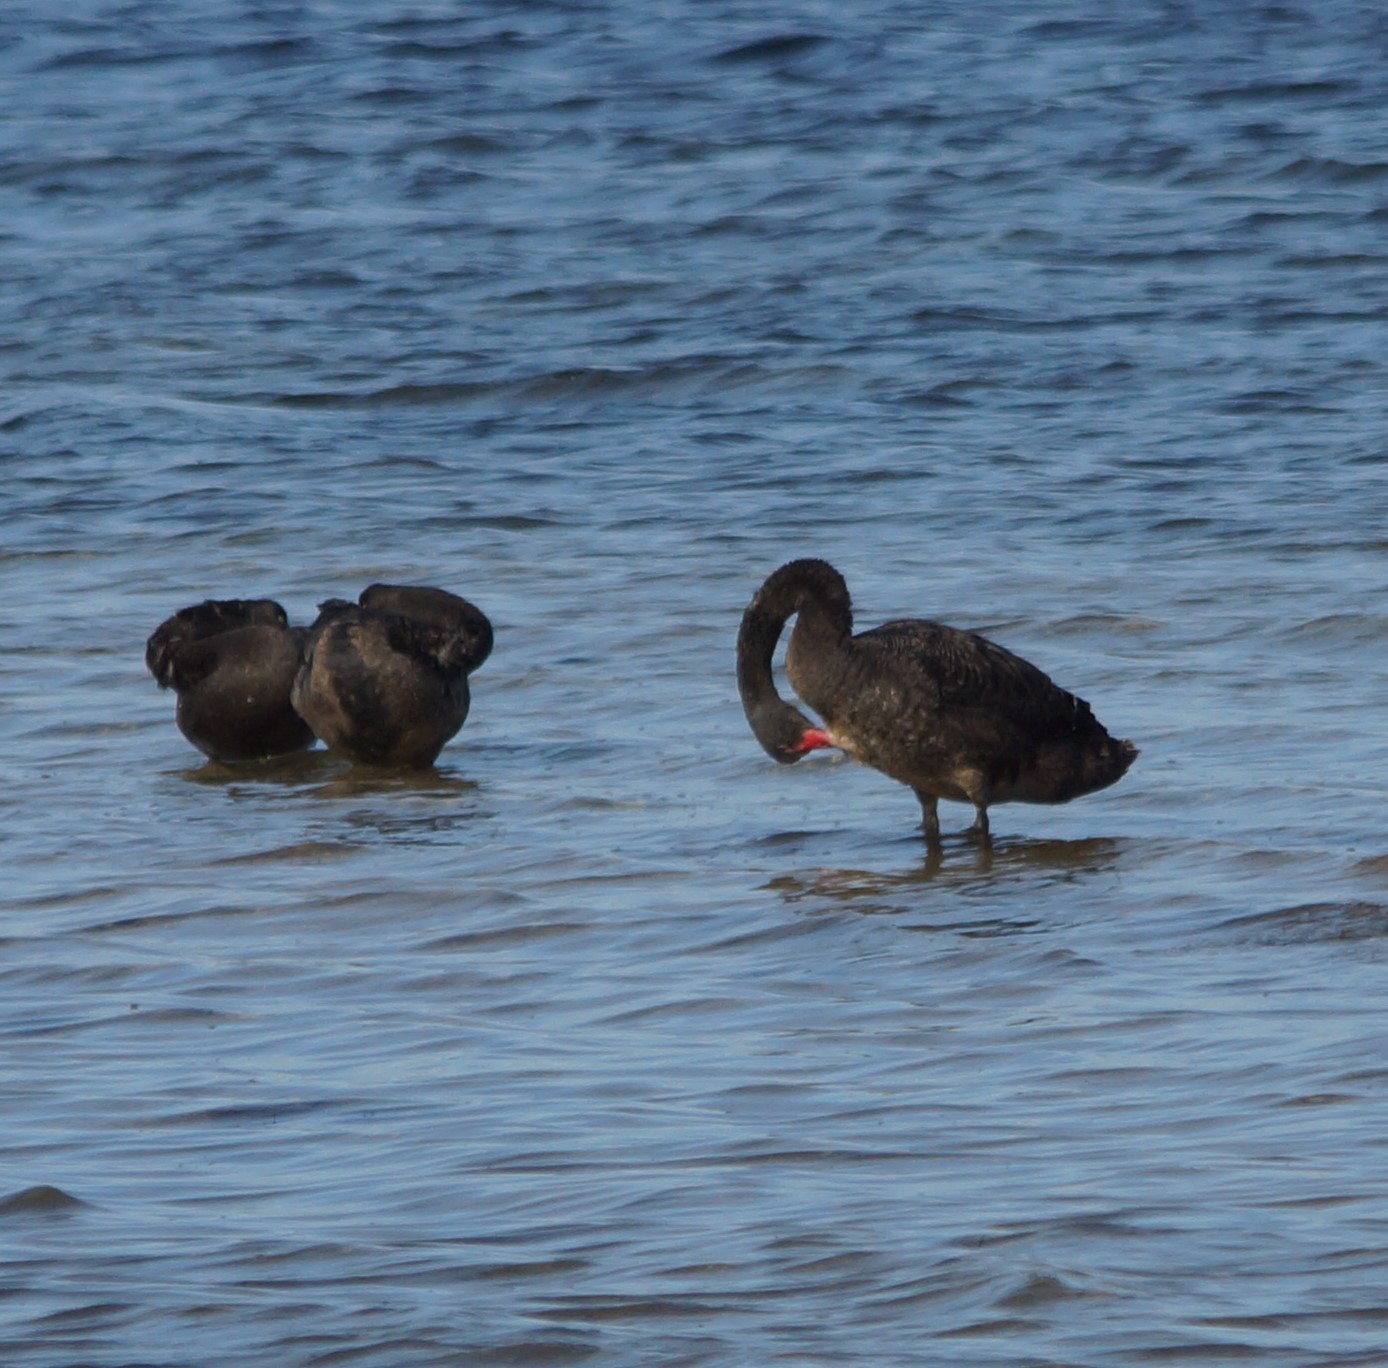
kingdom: Animalia
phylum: Chordata
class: Aves
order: Anseriformes
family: Anatidae
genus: Cygnus
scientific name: Cygnus atratus
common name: Black swan
